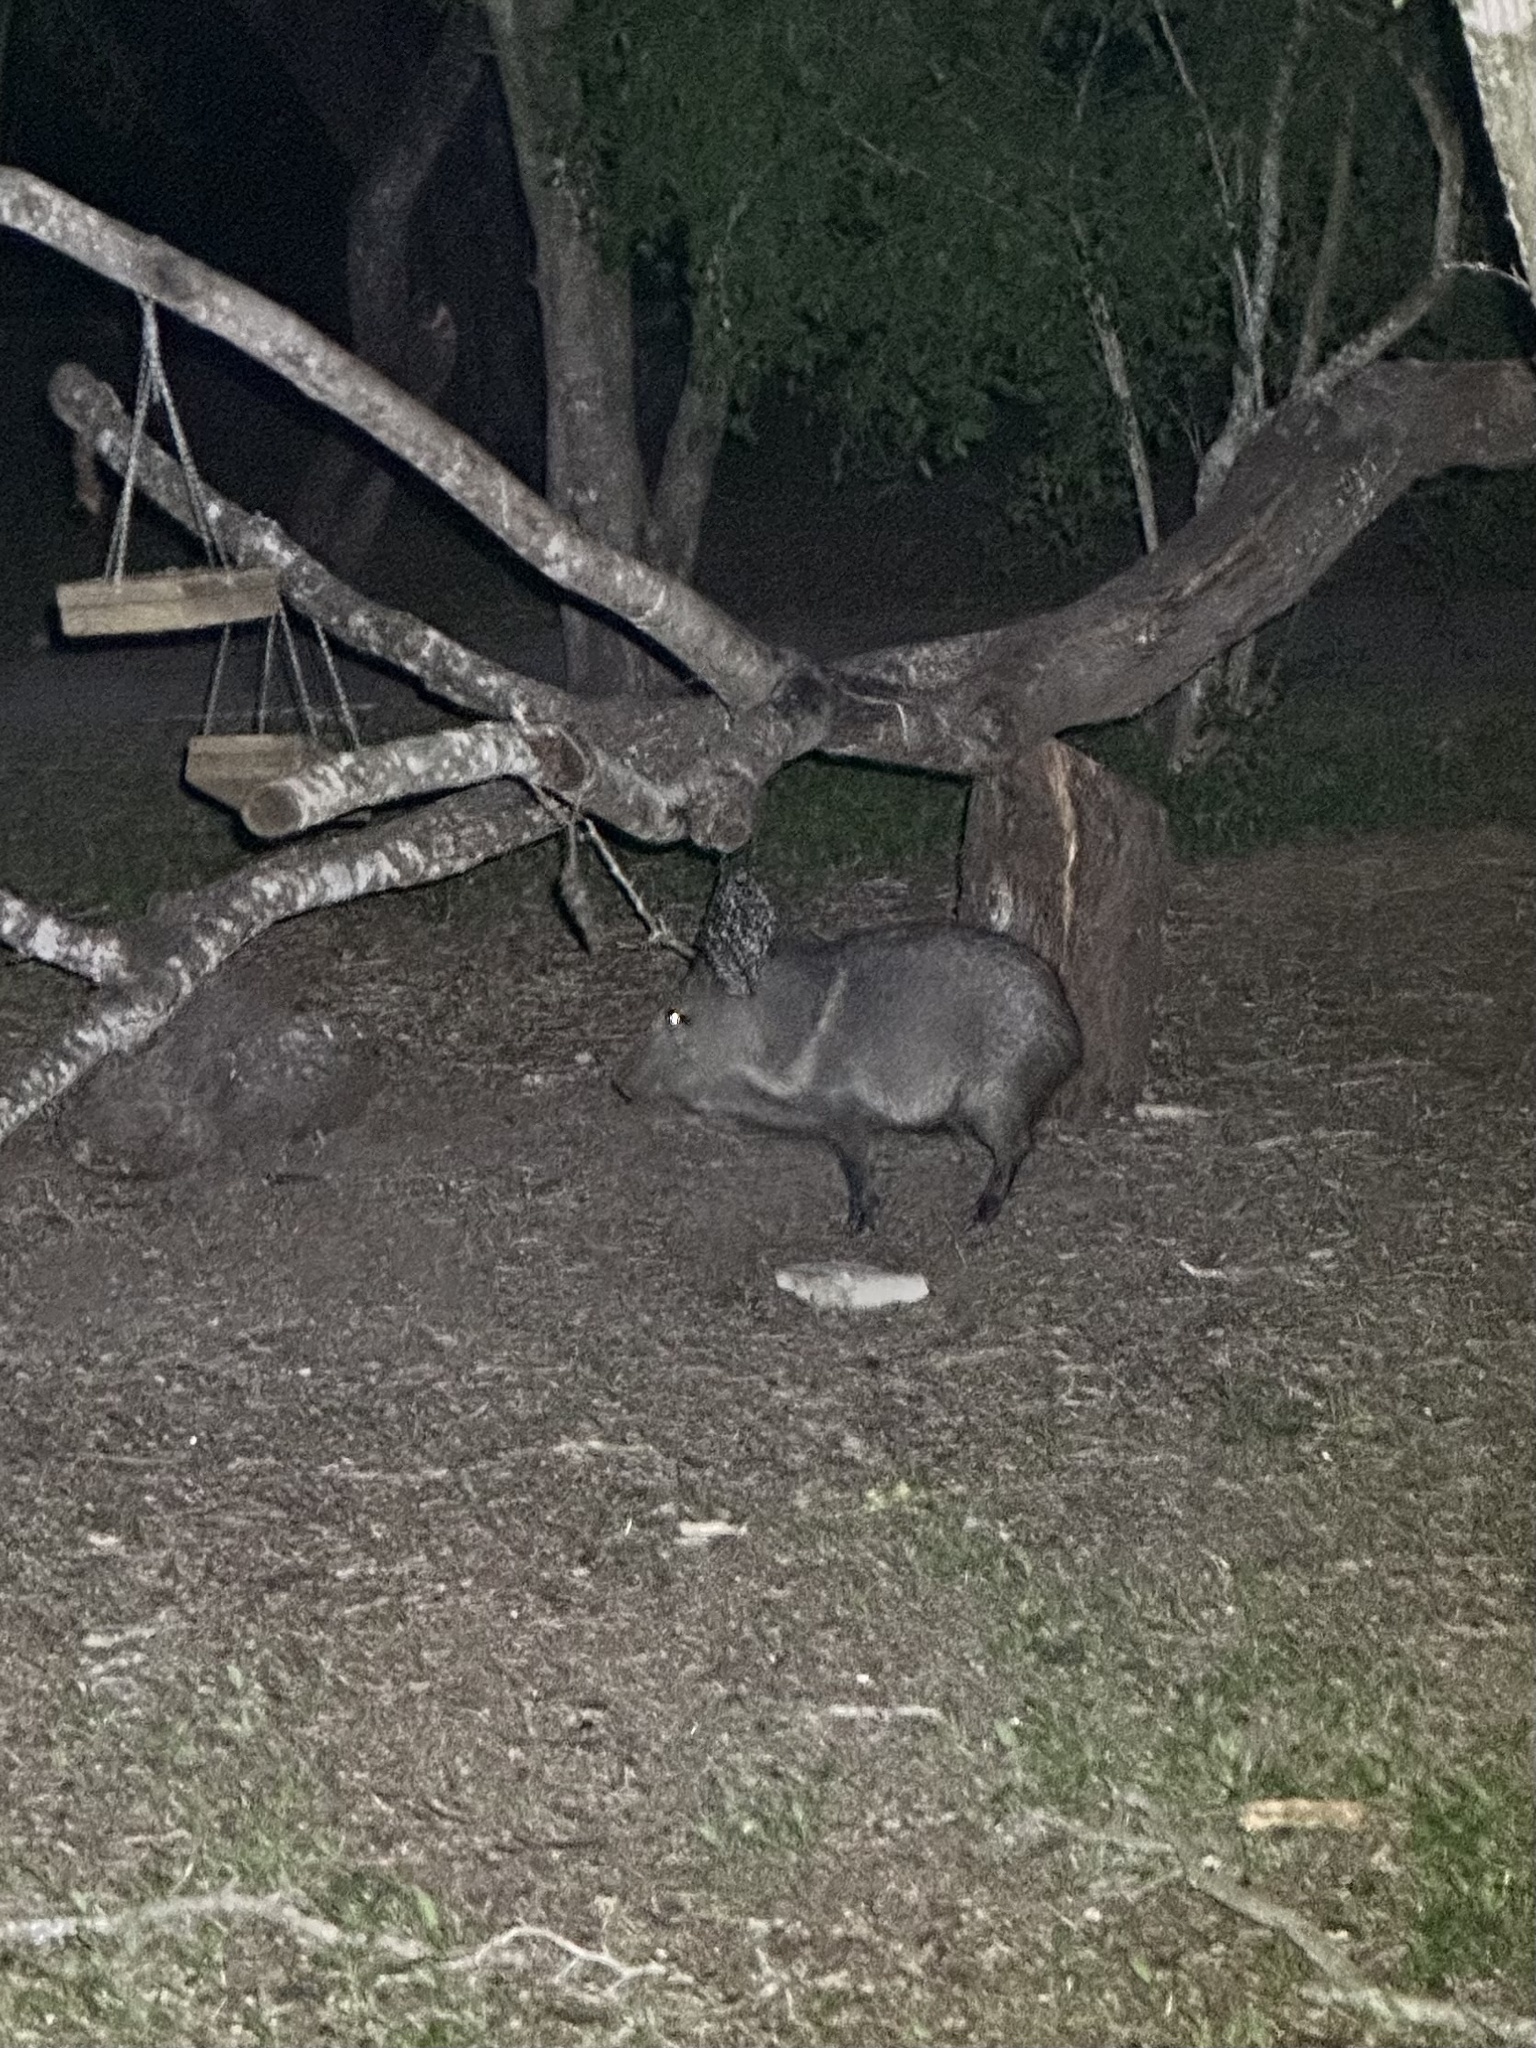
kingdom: Animalia
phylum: Chordata
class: Mammalia
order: Artiodactyla
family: Tayassuidae
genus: Pecari
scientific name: Pecari tajacu
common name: Collared peccary
